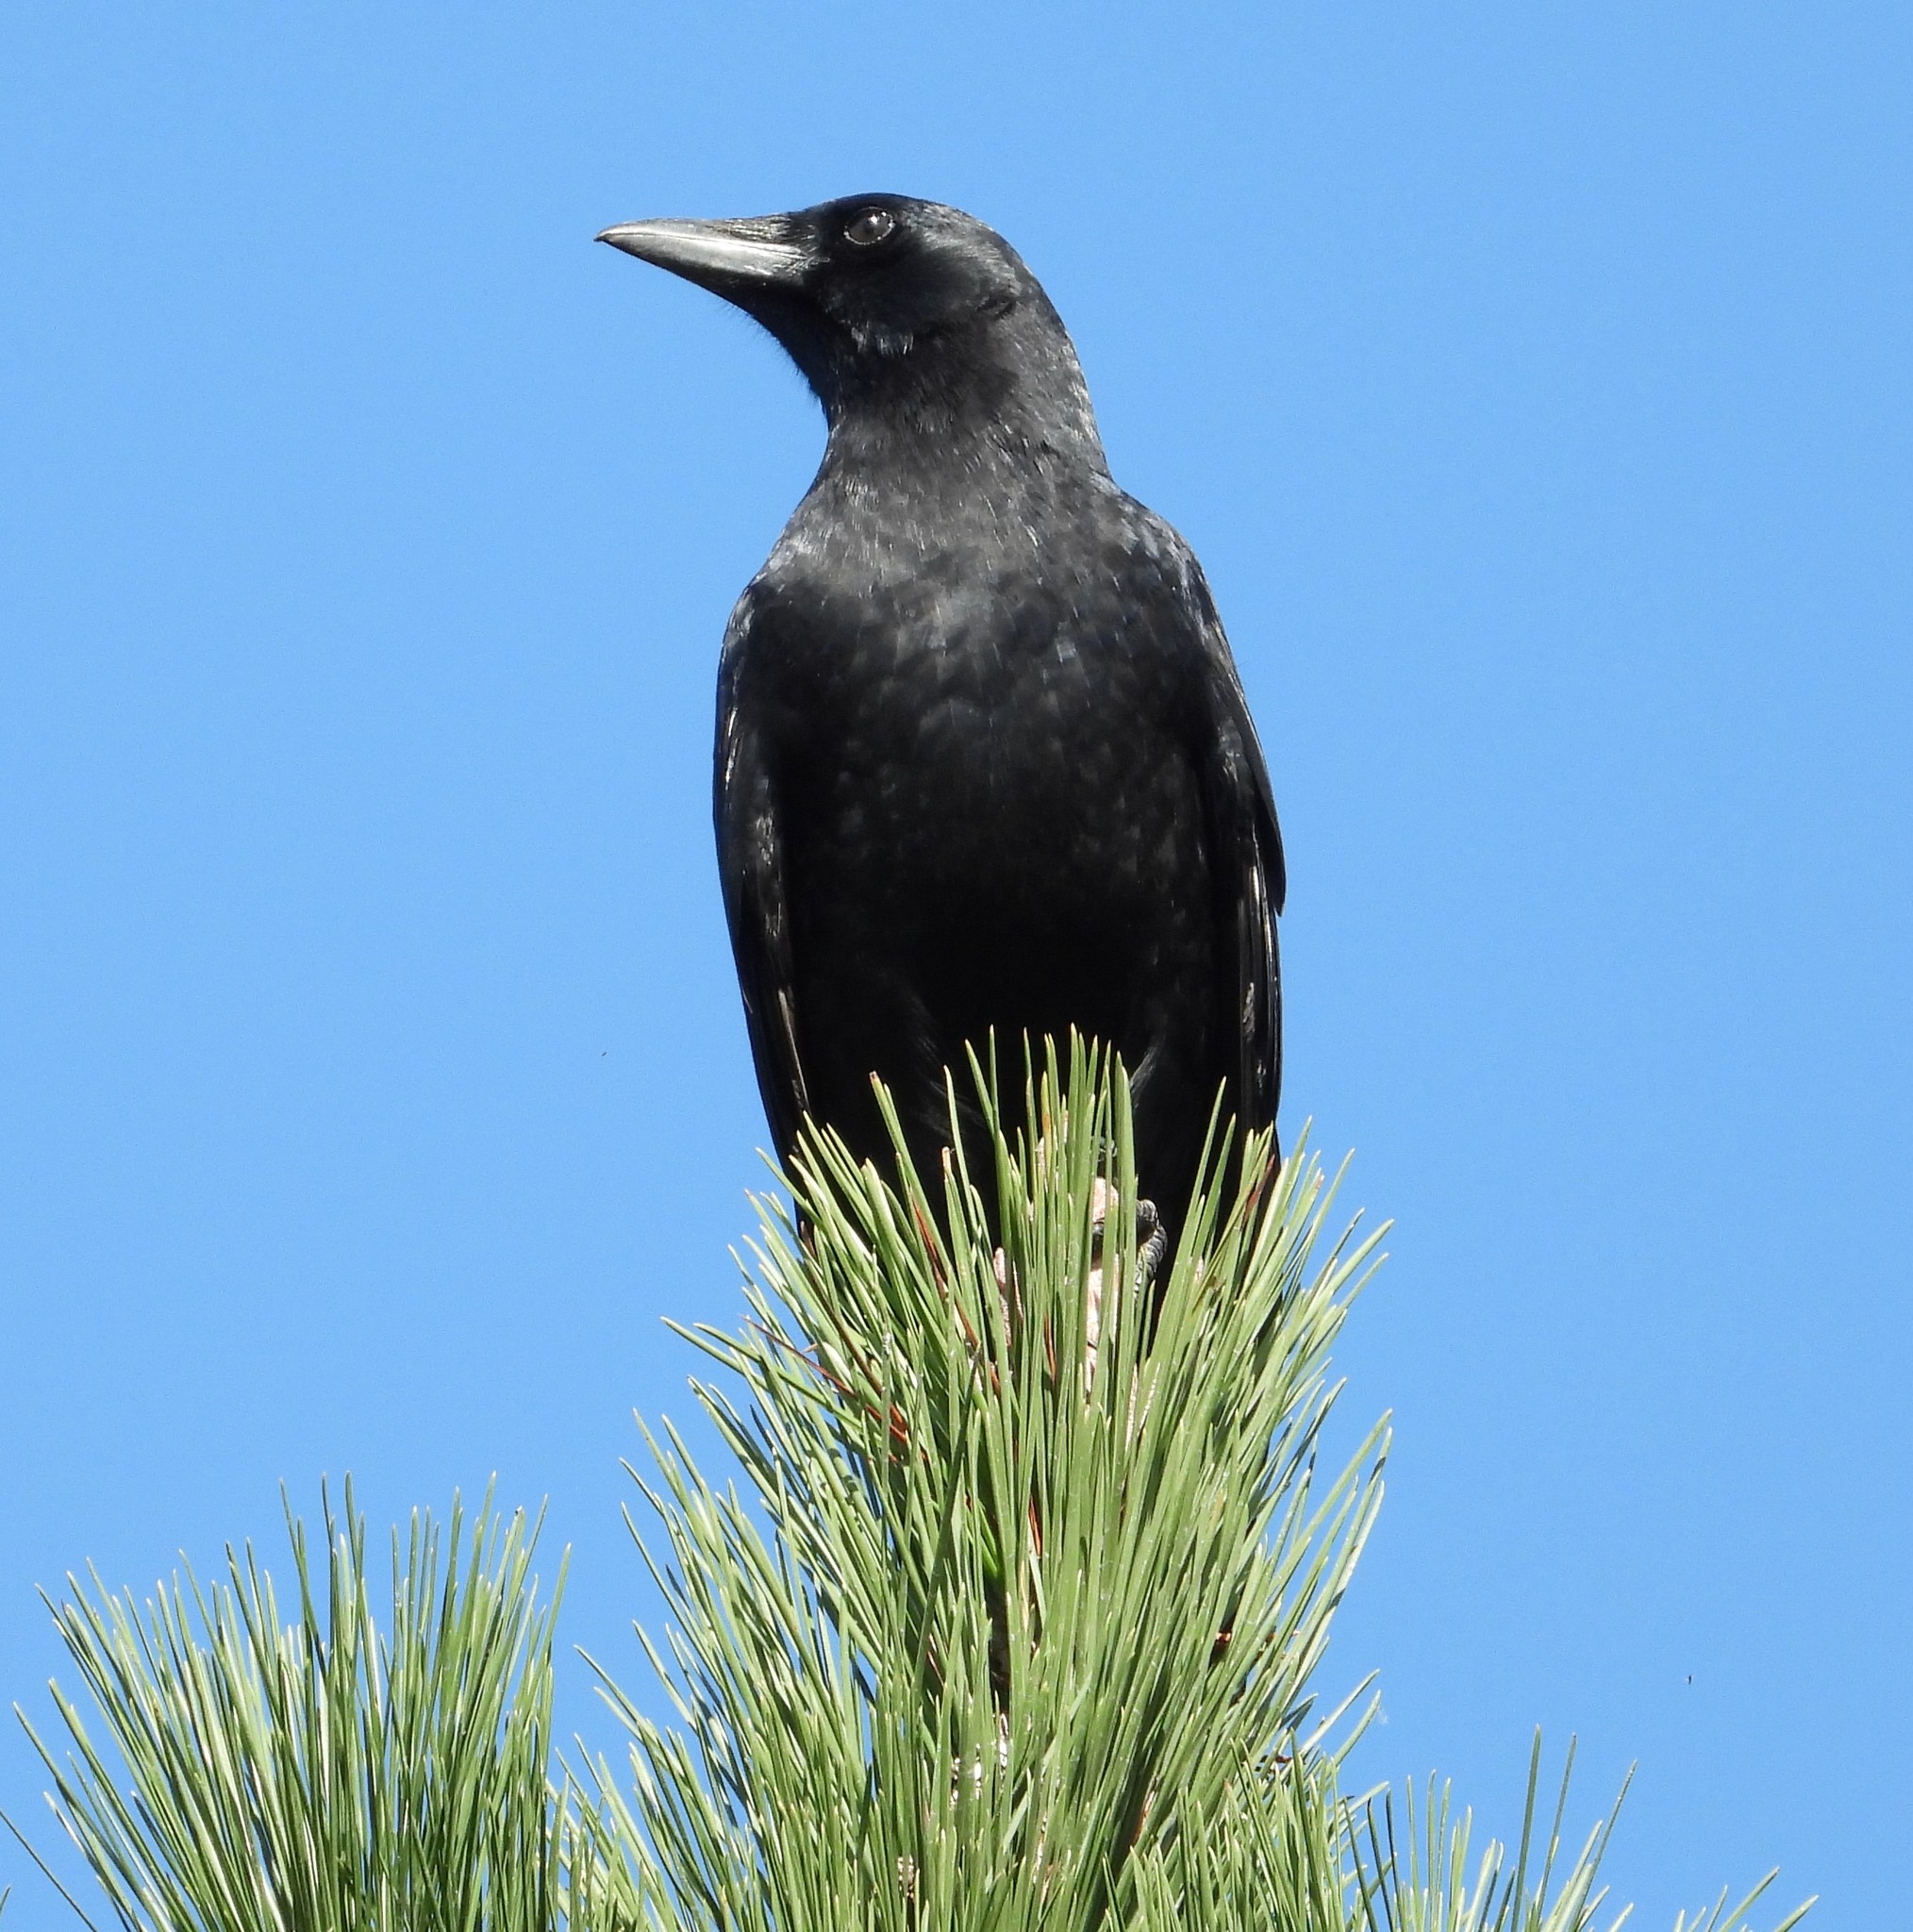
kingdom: Animalia
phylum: Chordata
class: Aves
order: Passeriformes
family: Corvidae
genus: Corvus
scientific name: Corvus brachyrhynchos
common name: American crow
